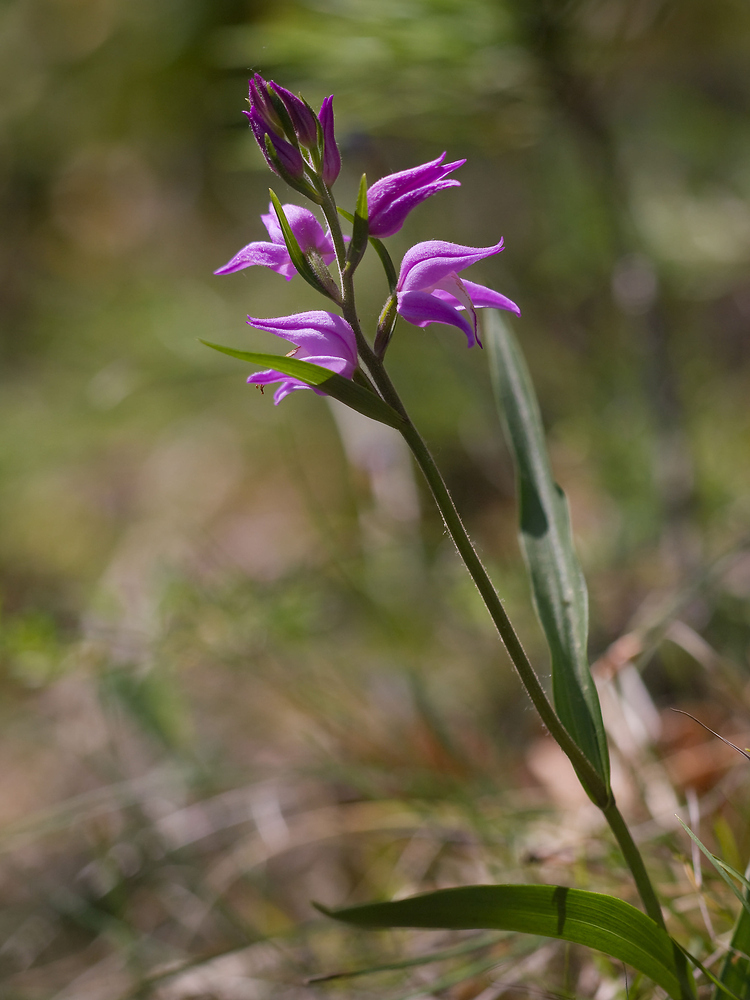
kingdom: Plantae
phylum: Tracheophyta
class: Liliopsida
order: Asparagales
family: Orchidaceae
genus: Cephalanthera
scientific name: Cephalanthera rubra
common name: Red helleborine
